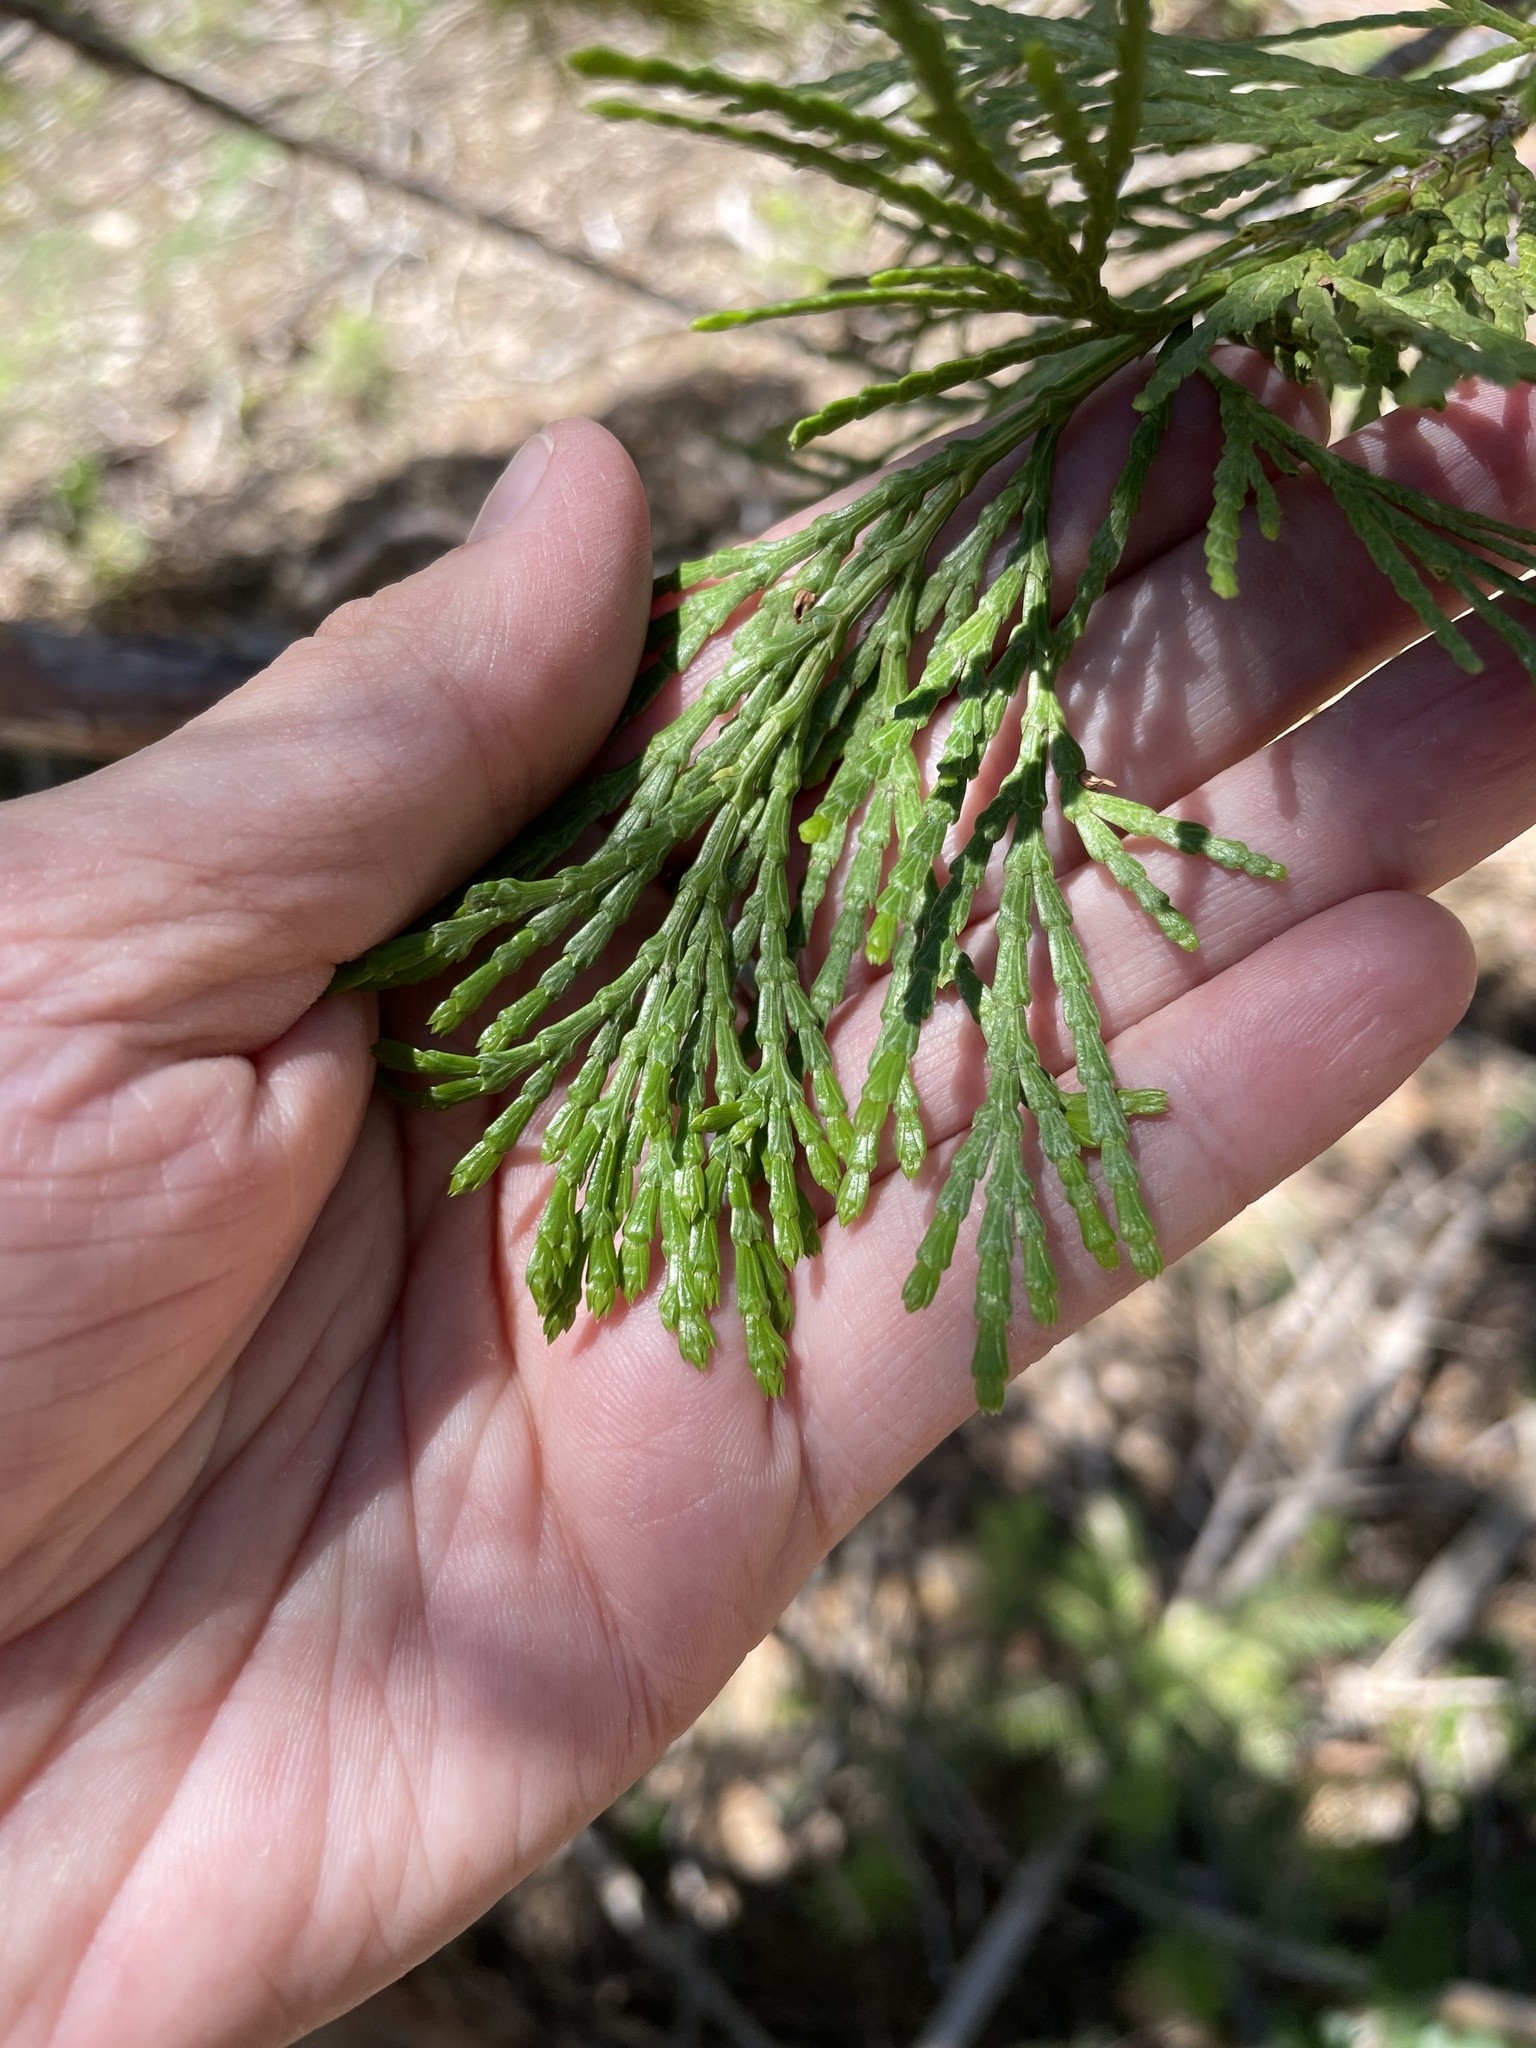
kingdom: Plantae
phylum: Tracheophyta
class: Pinopsida
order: Pinales
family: Cupressaceae
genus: Calocedrus
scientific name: Calocedrus decurrens
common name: Californian incense-cedar
